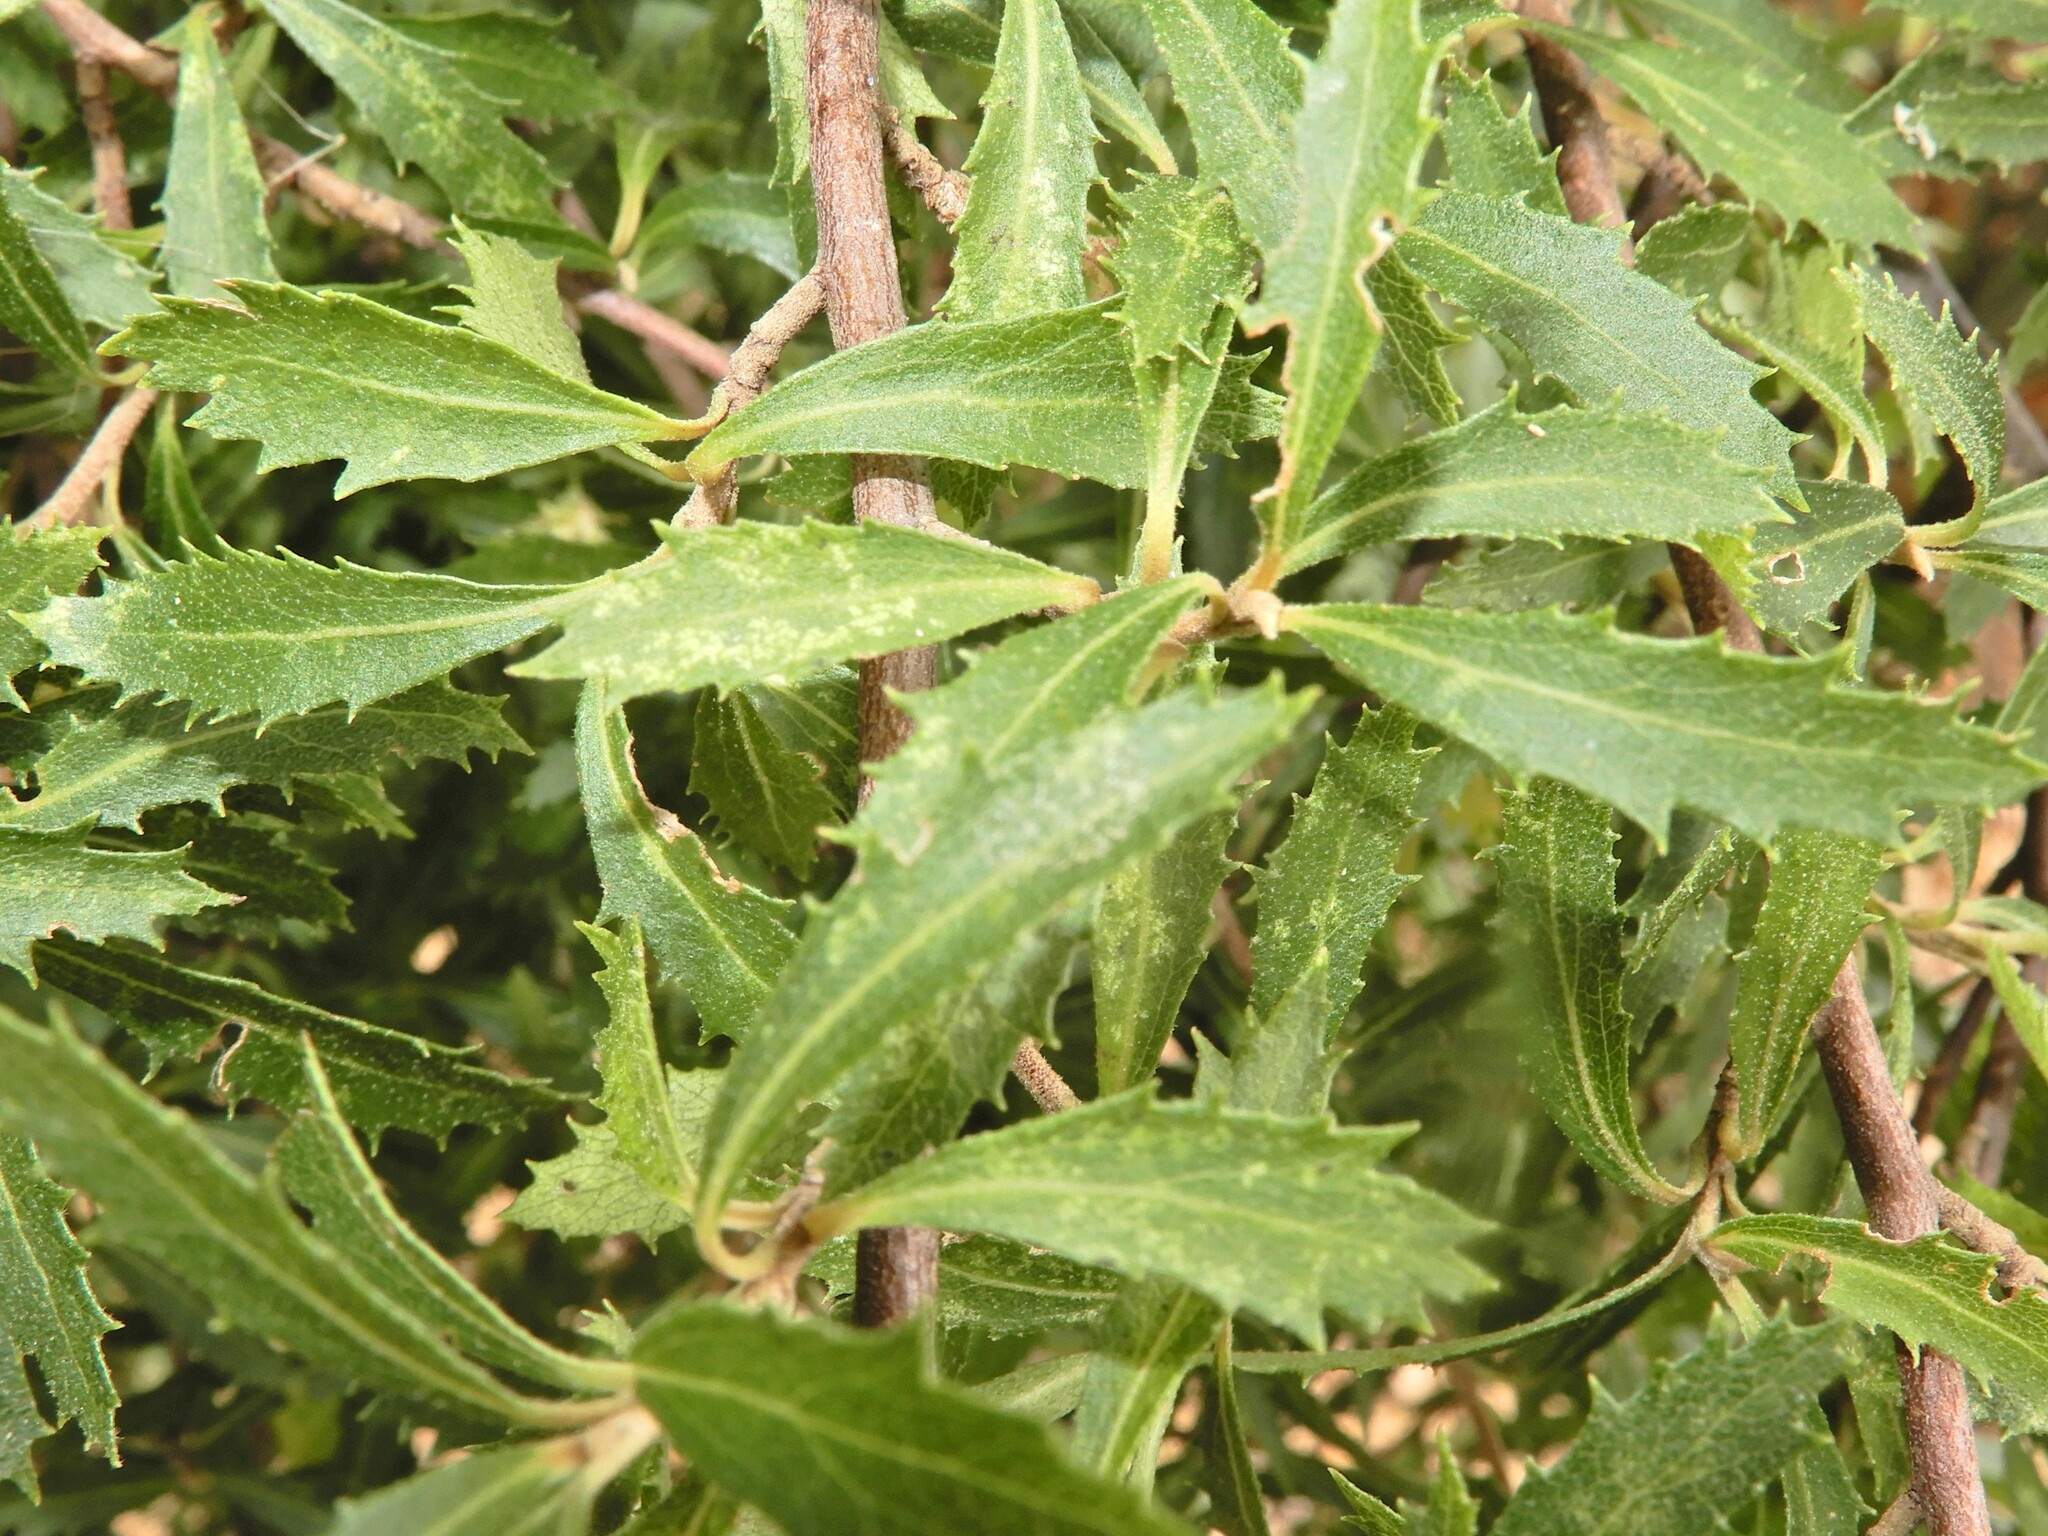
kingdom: Plantae
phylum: Tracheophyta
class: Magnoliopsida
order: Malvales
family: Malvaceae
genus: Hoheria
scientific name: Hoheria angustifolia
